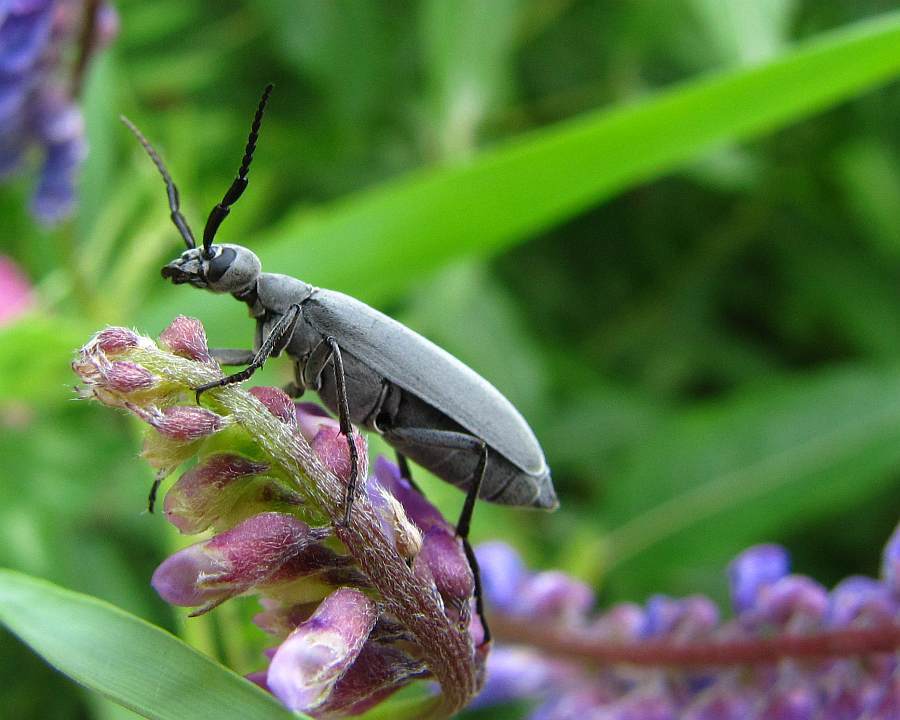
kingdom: Animalia
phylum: Arthropoda
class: Insecta
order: Coleoptera
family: Meloidae
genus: Epicauta
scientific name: Epicauta murina
